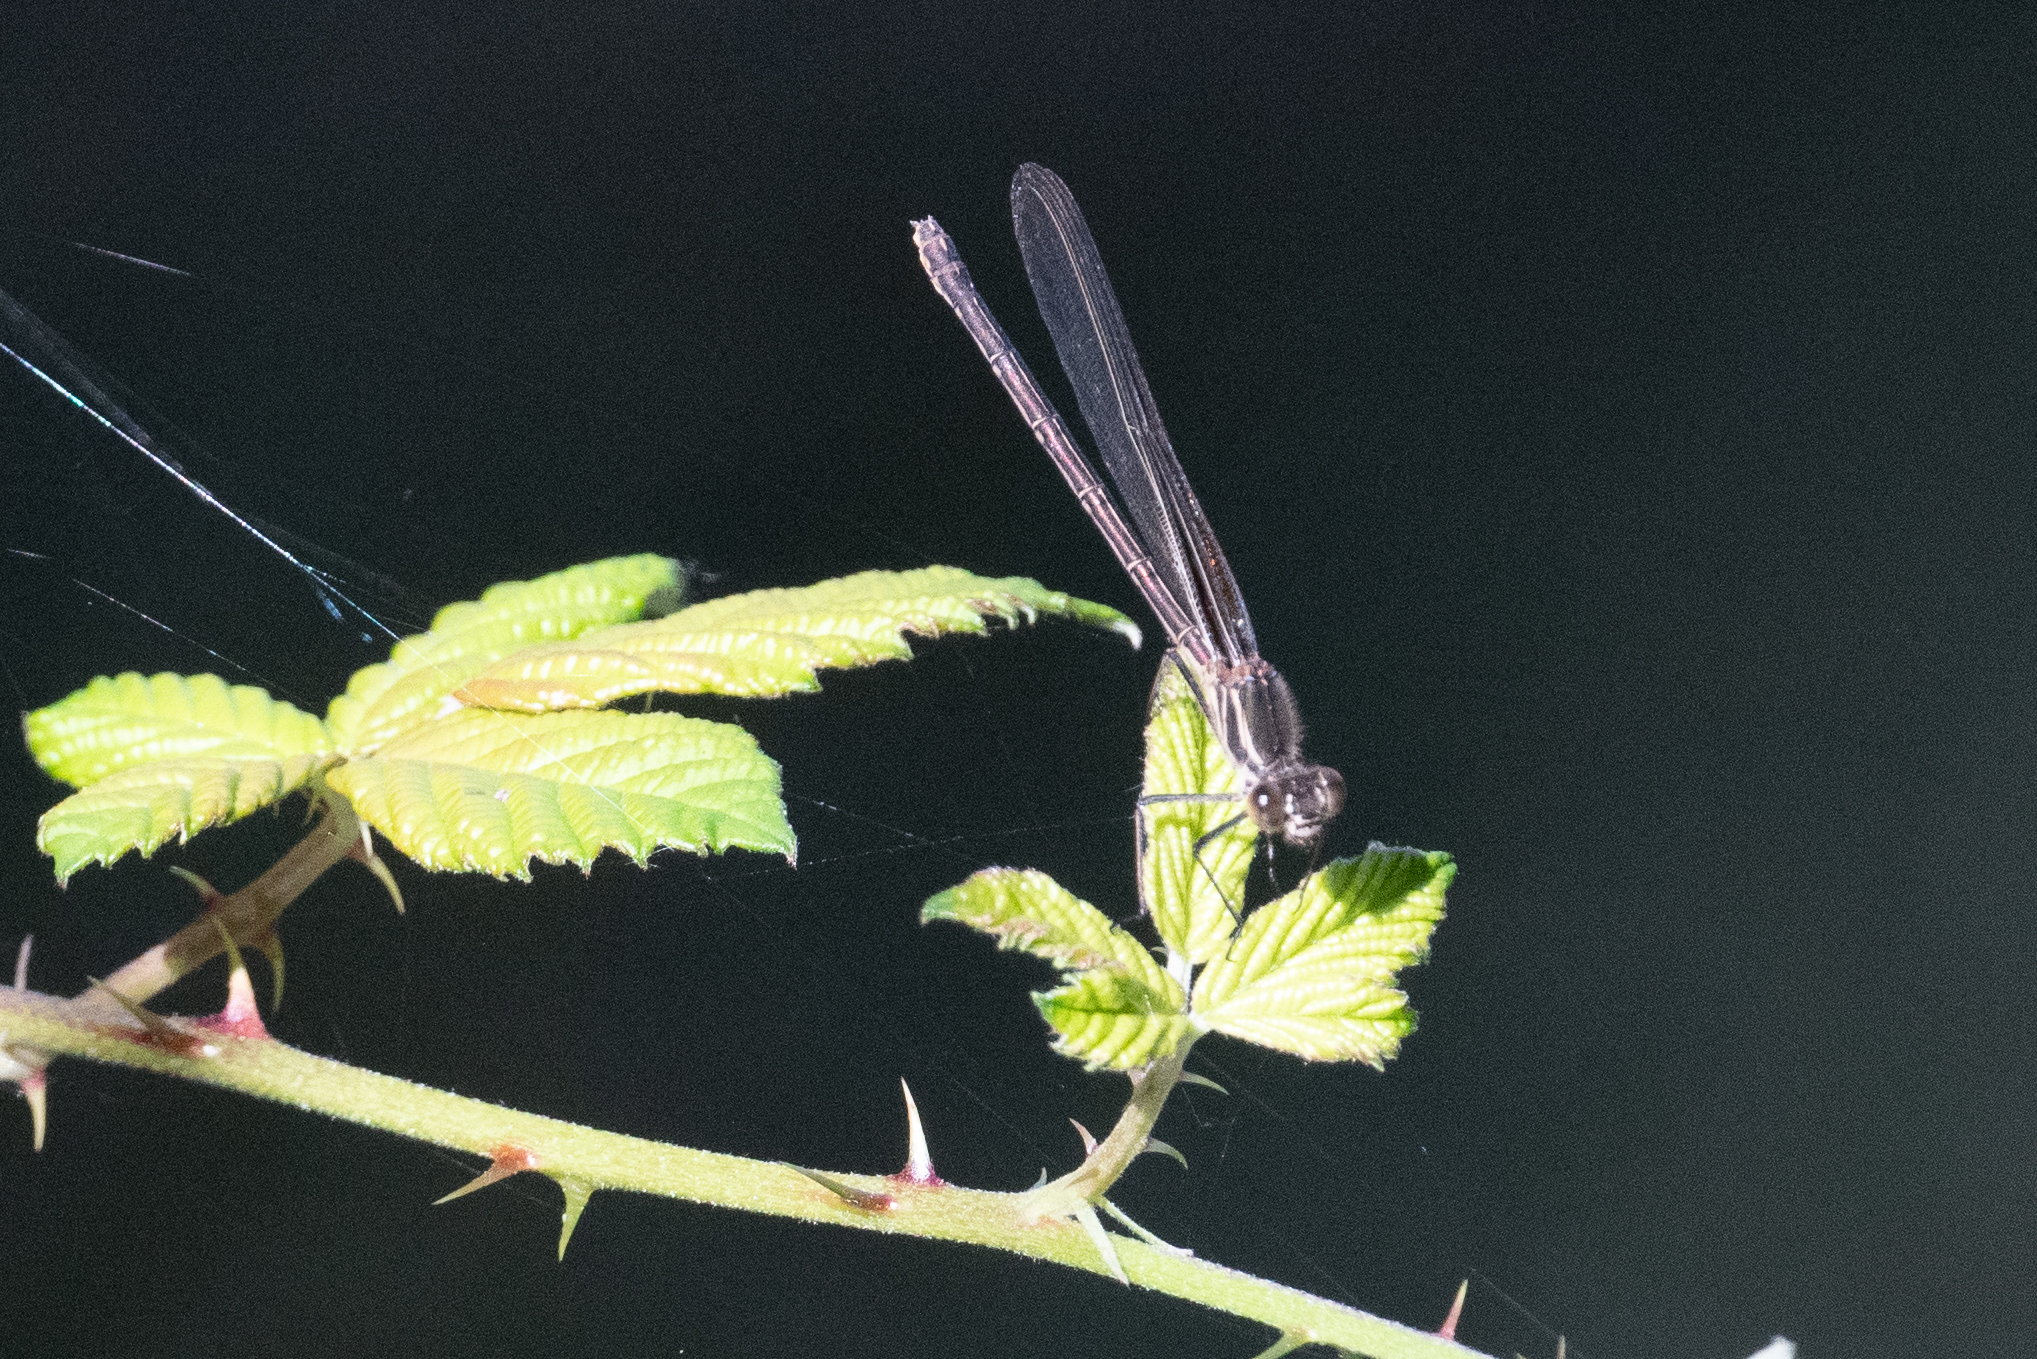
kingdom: Animalia
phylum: Arthropoda
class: Insecta
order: Odonata
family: Calopterygidae
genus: Hetaerina
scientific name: Hetaerina americana
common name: American rubyspot
